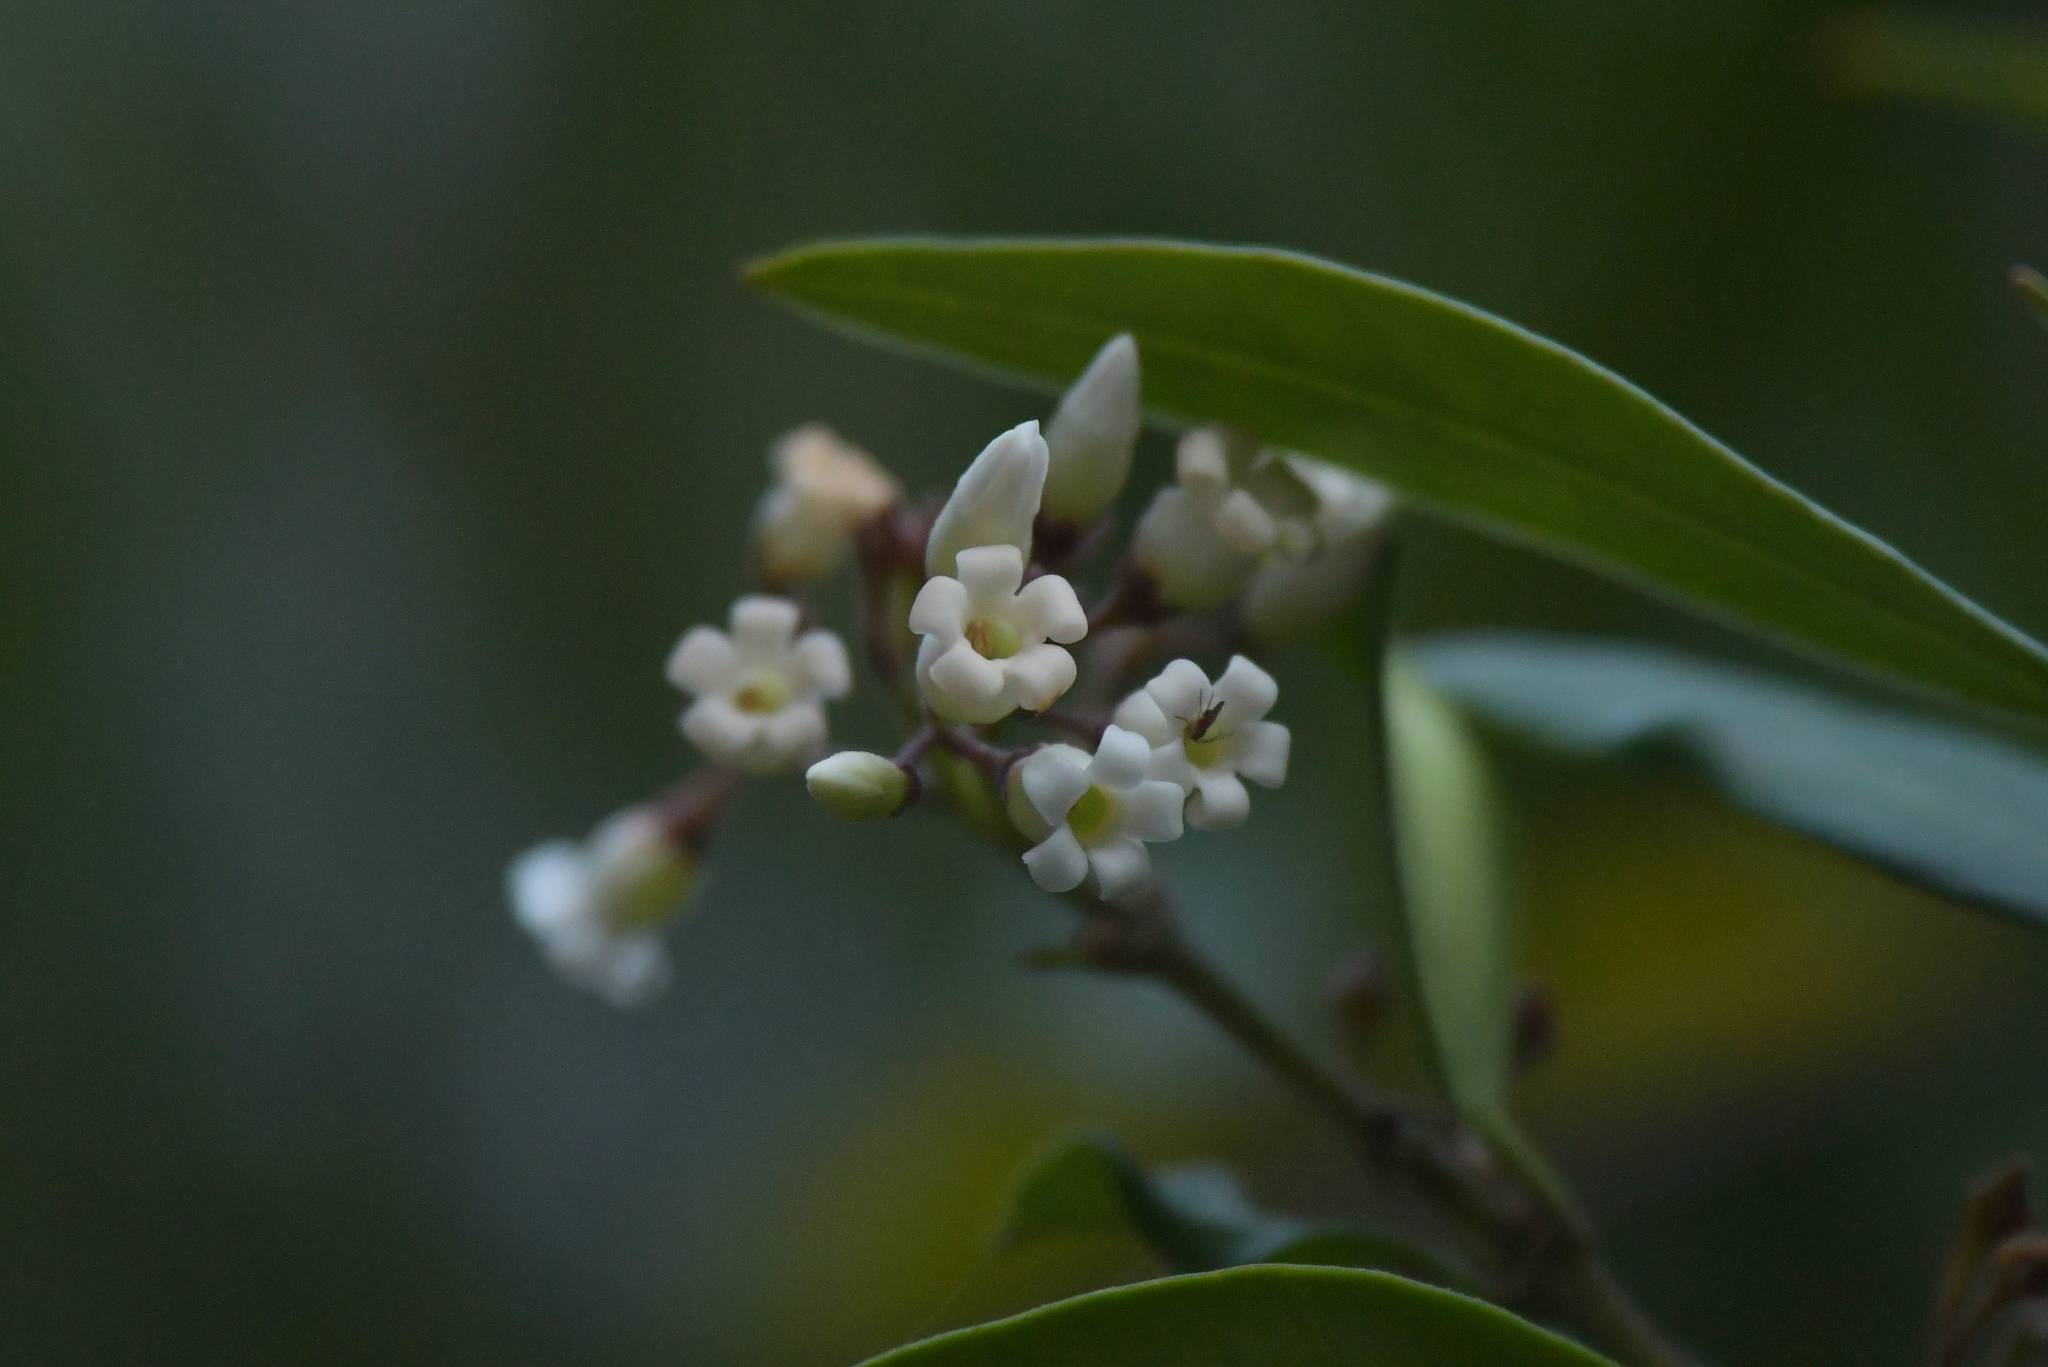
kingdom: Plantae
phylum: Tracheophyta
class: Magnoliopsida
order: Gentianales
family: Apocynaceae
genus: Parsonsia
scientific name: Parsonsia heterophylla
